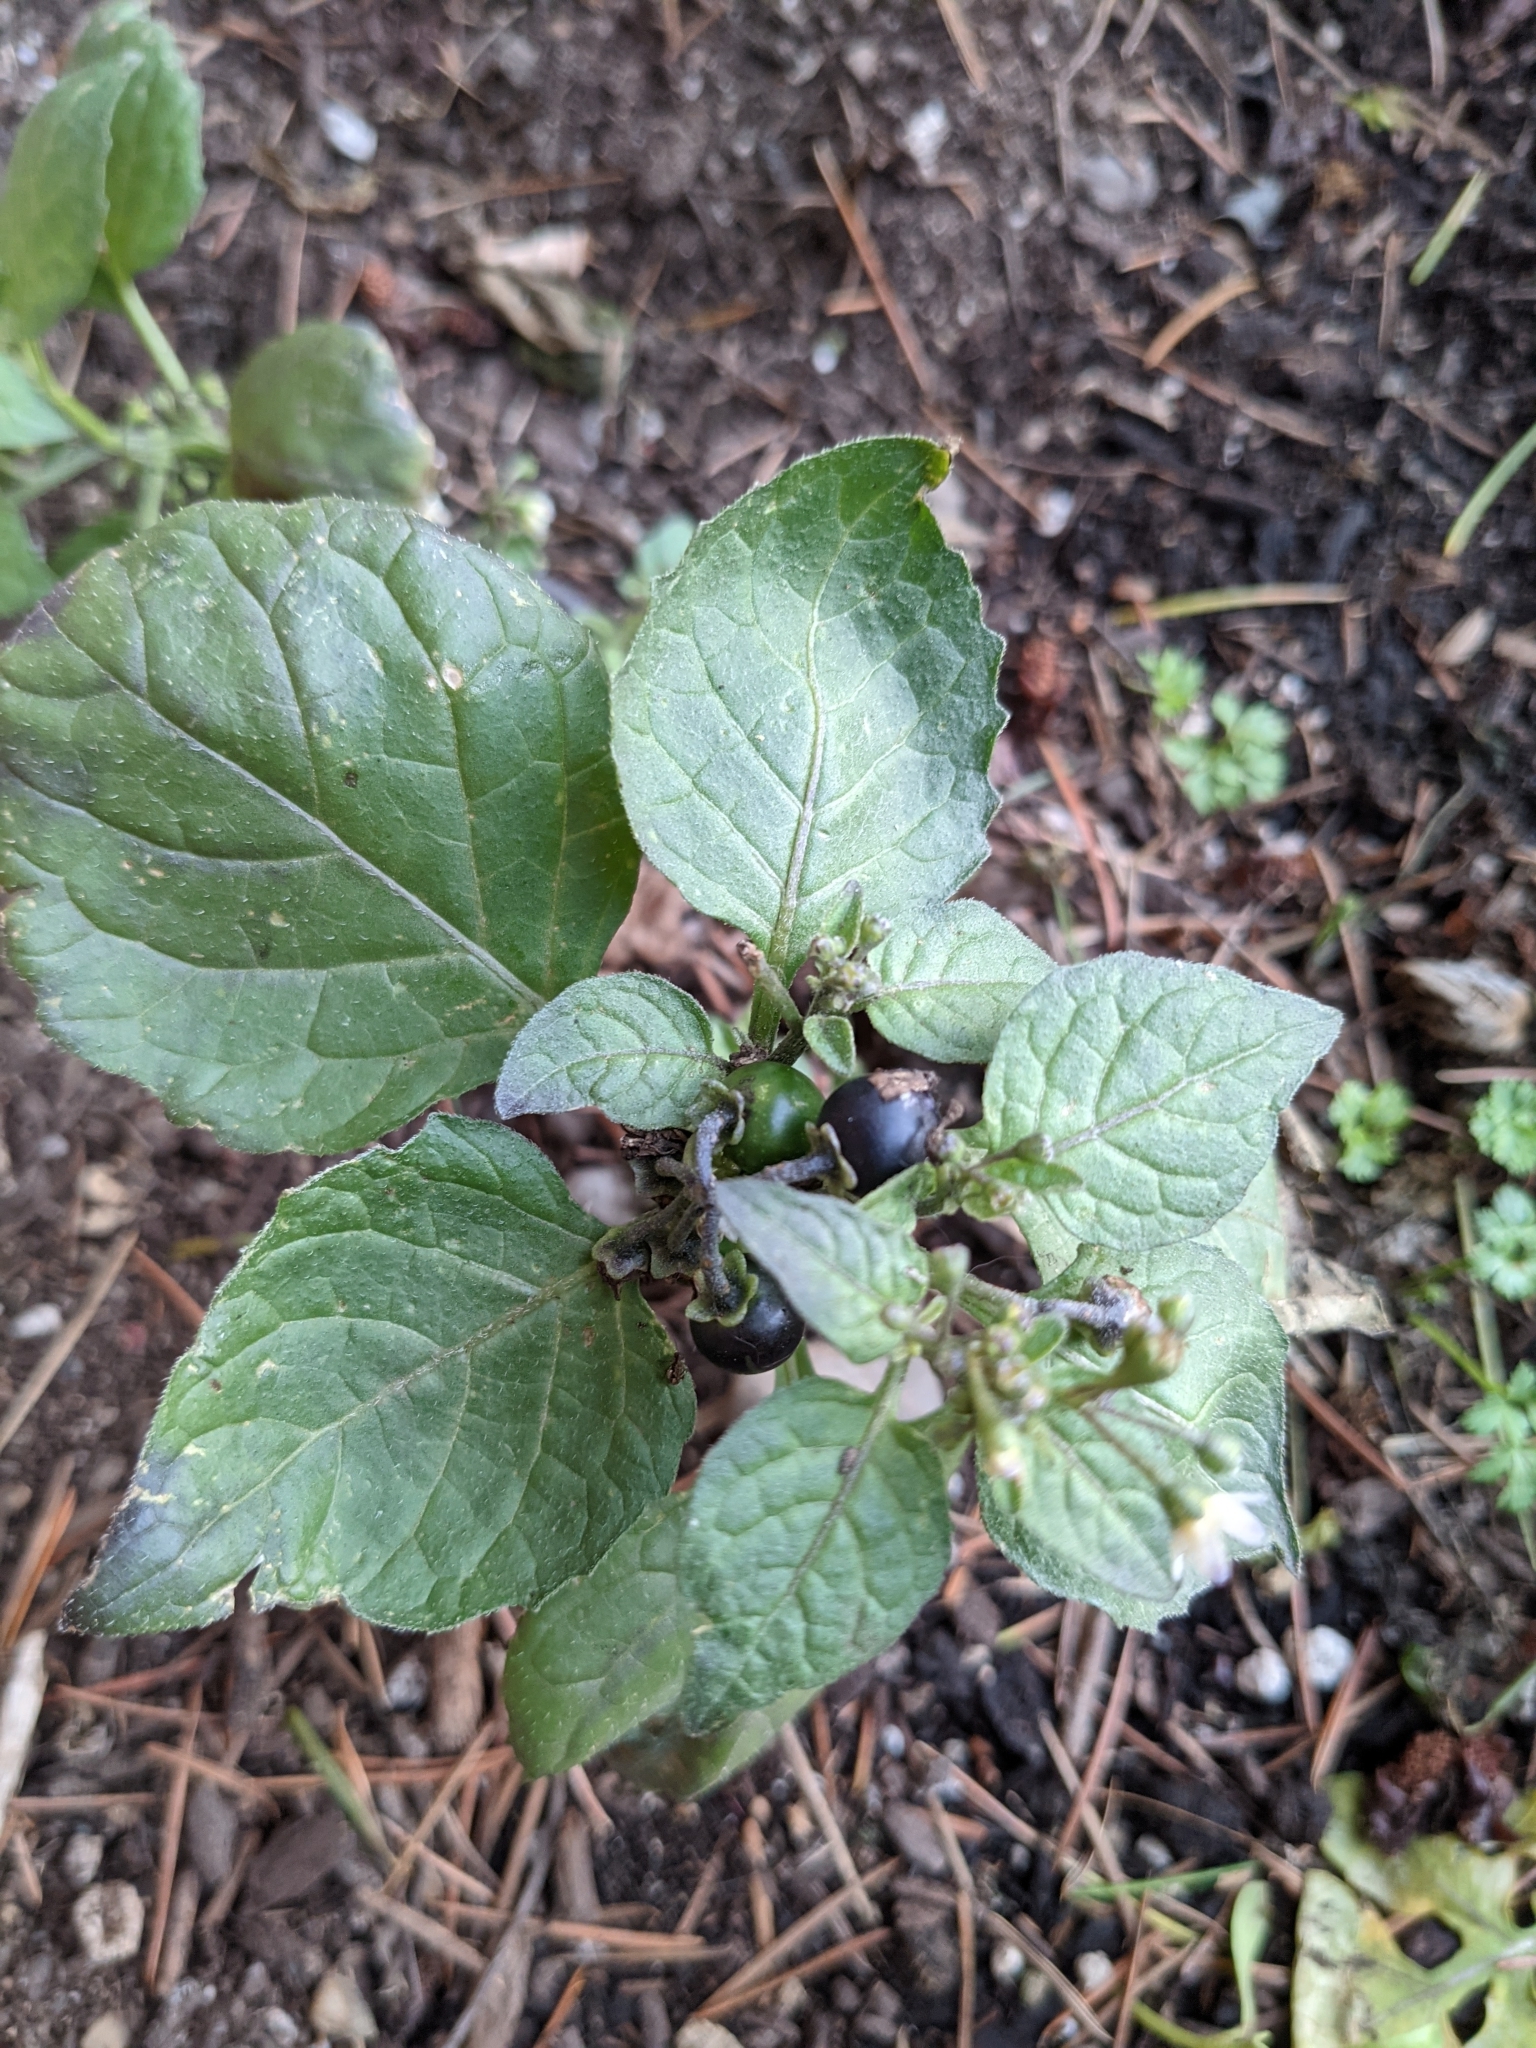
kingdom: Plantae
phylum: Tracheophyta
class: Magnoliopsida
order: Solanales
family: Solanaceae
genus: Solanum
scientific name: Solanum nigrum
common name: Black nightshade
